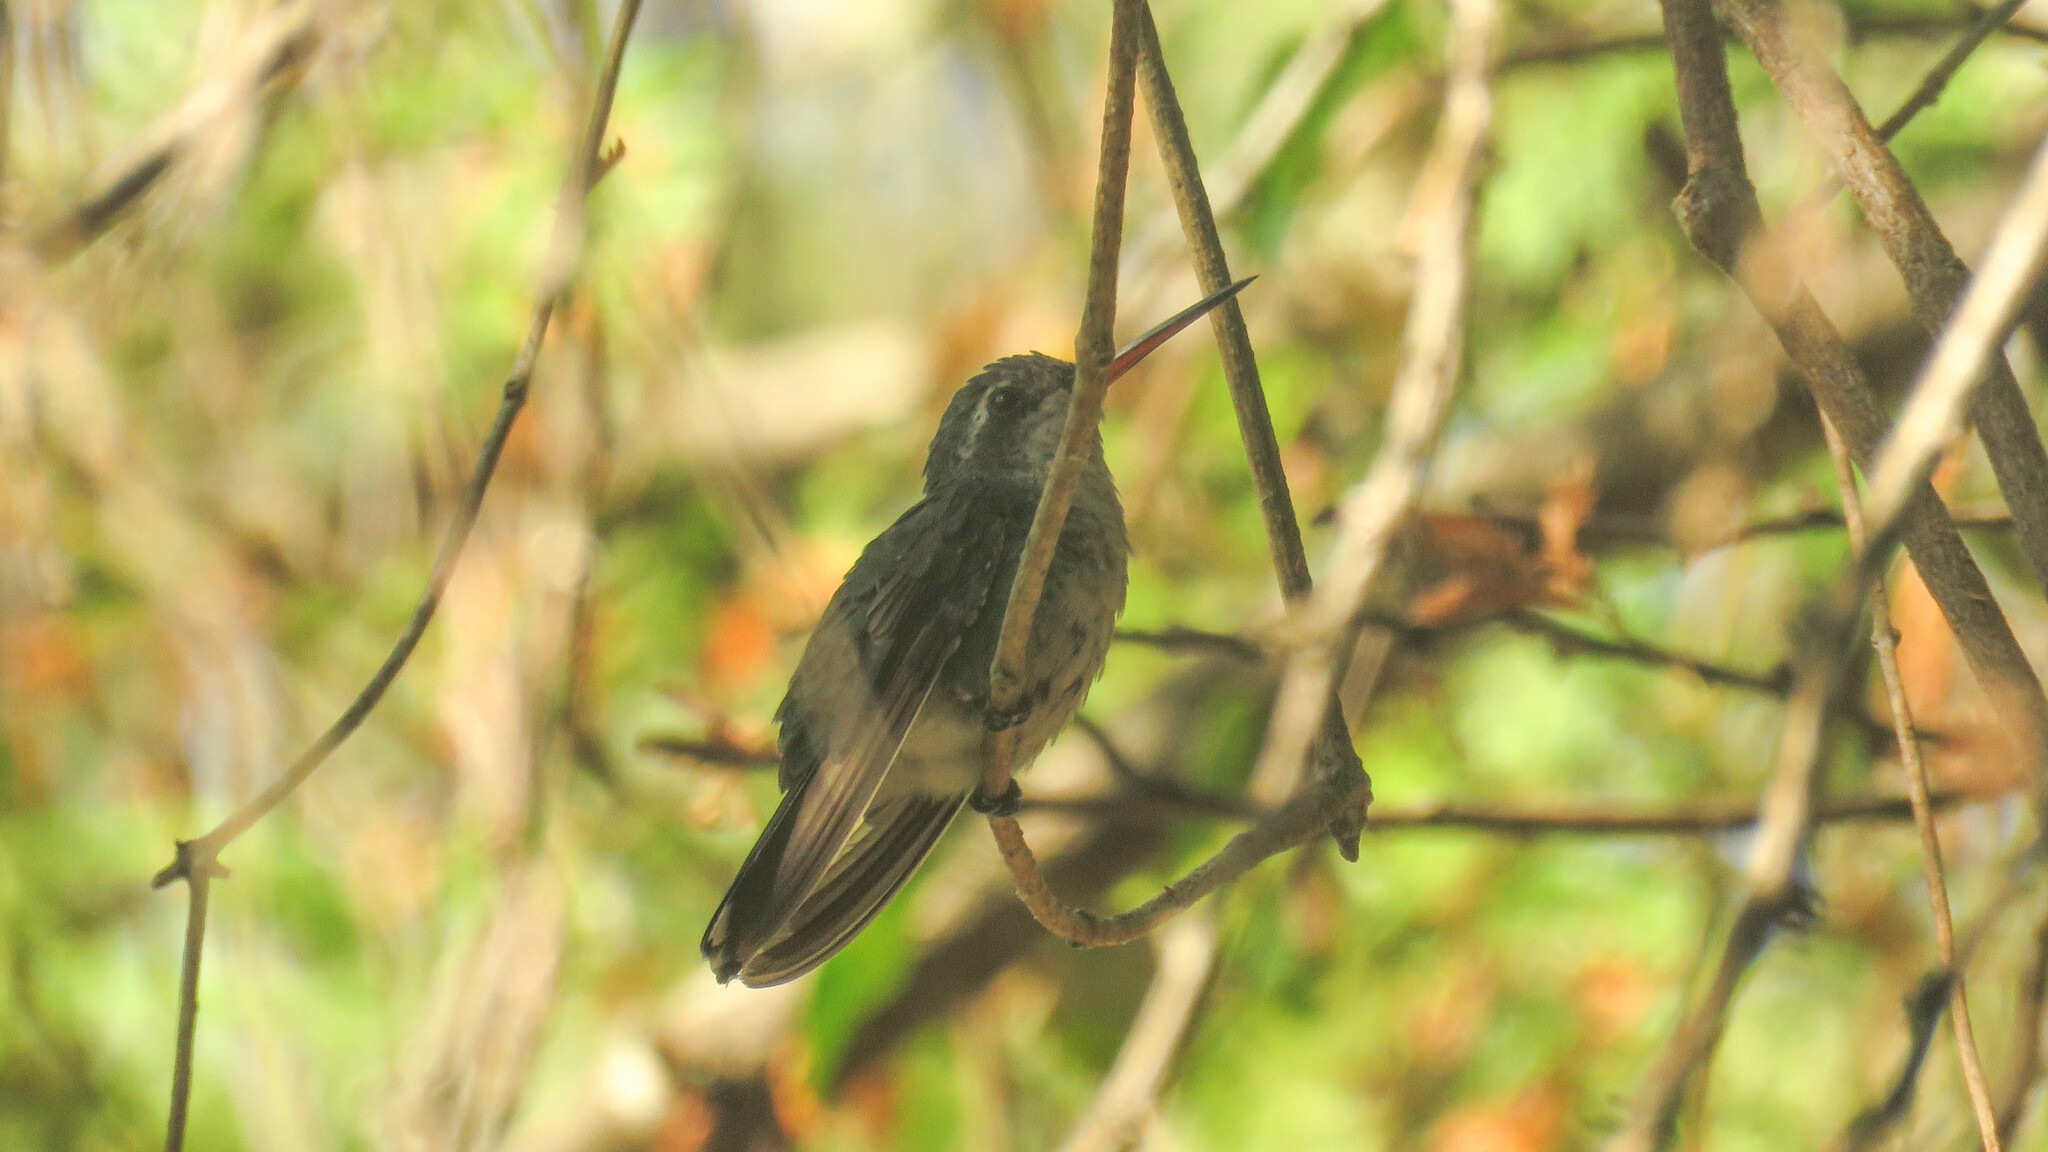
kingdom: Animalia
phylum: Chordata
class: Aves
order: Apodiformes
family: Trochilidae
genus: Chlorostilbon
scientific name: Chlorostilbon lucidus
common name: Glittering-bellied emerald
